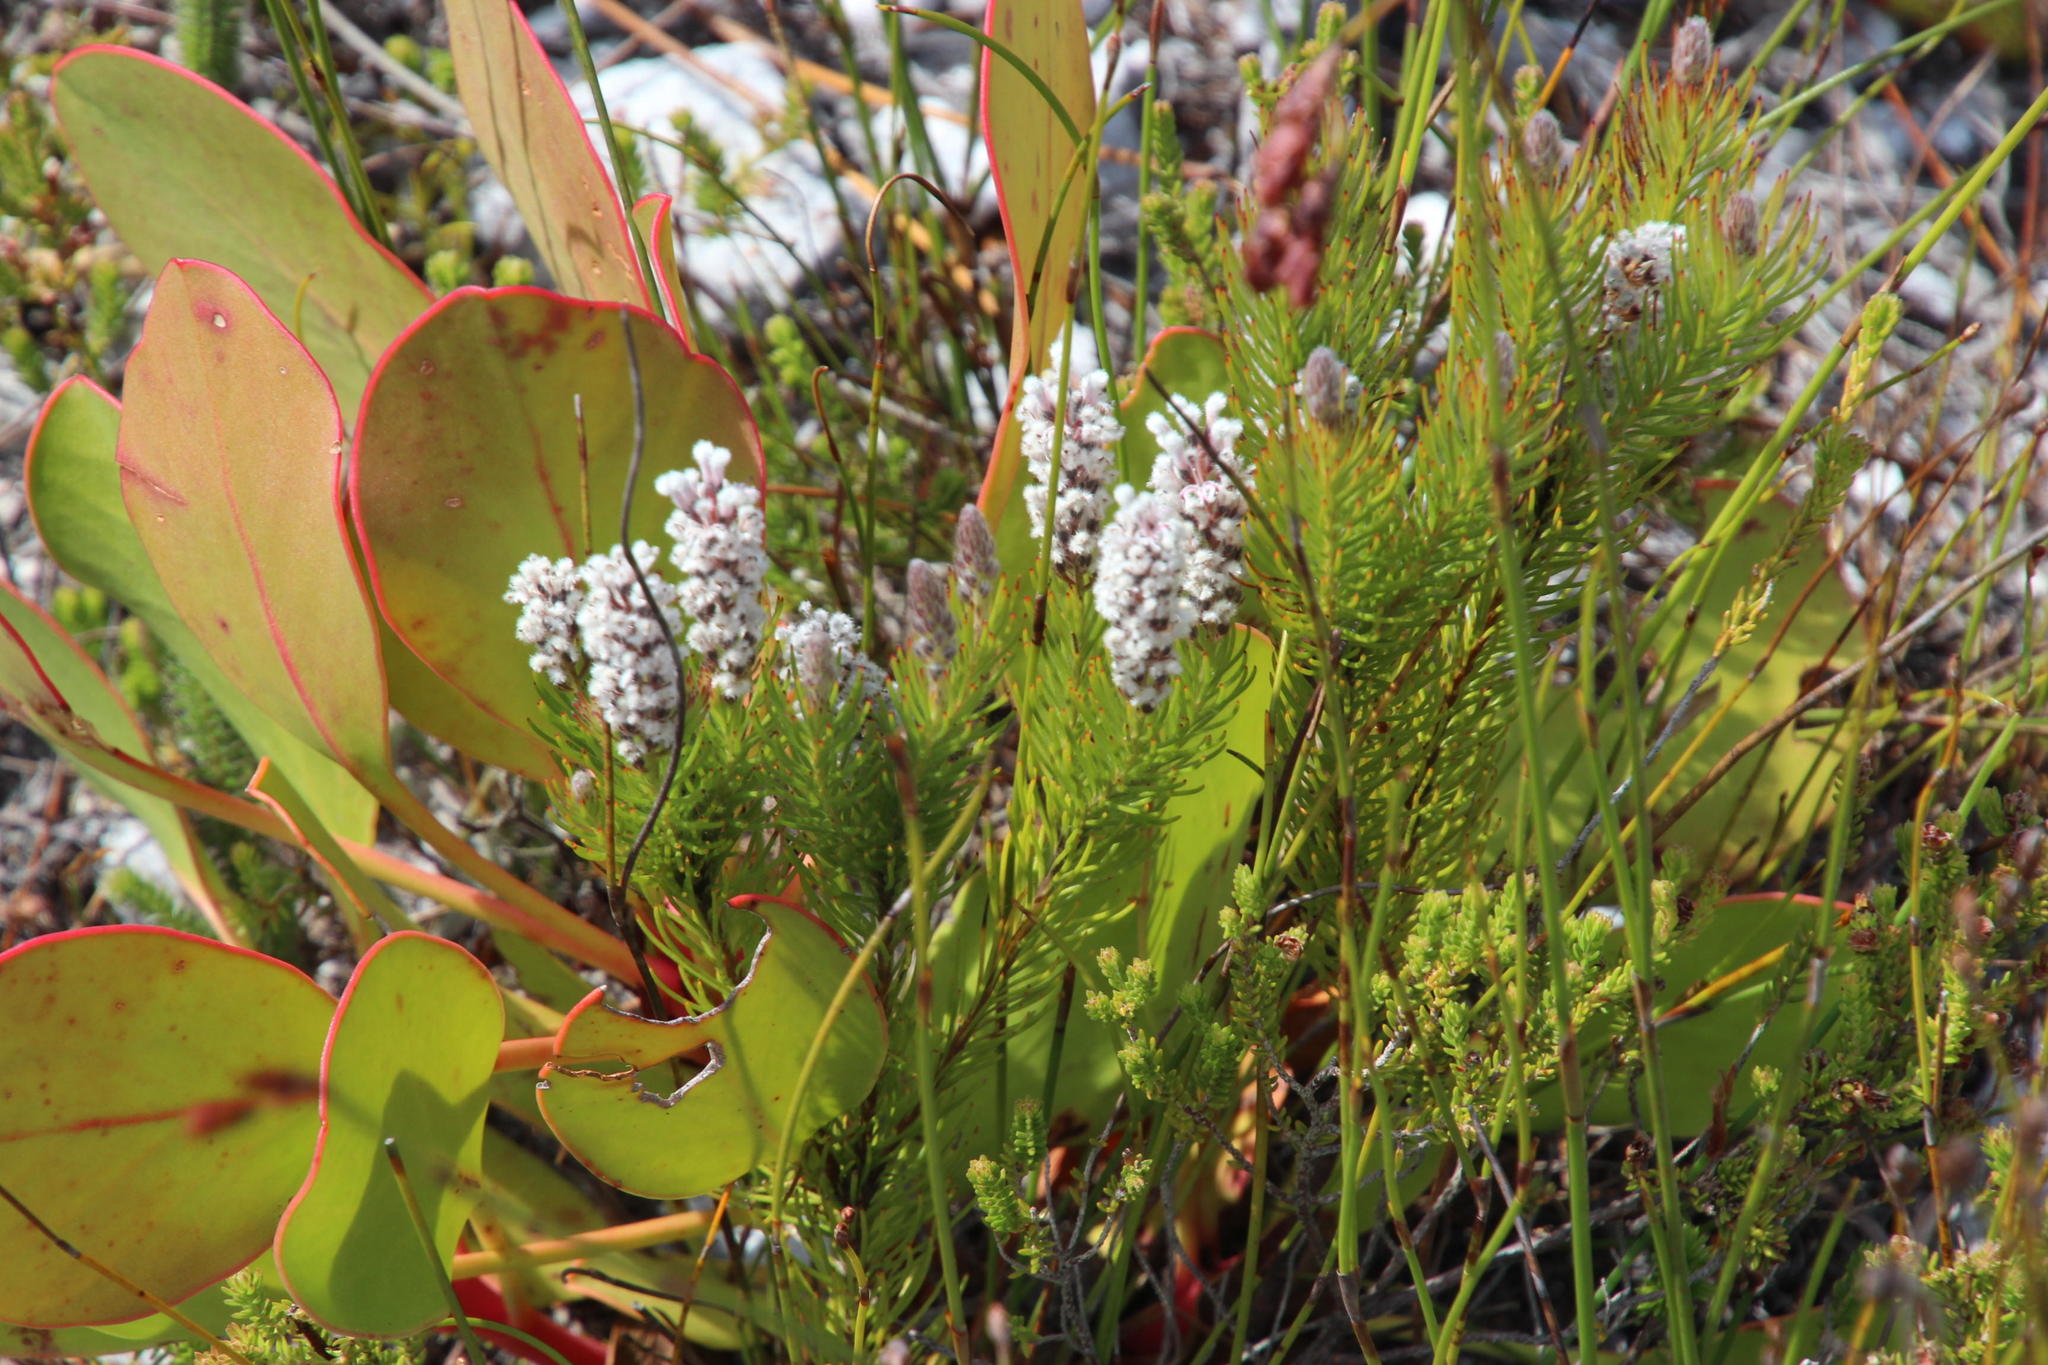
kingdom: Plantae
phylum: Tracheophyta
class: Magnoliopsida
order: Proteales
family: Proteaceae
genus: Spatalla
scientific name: Spatalla mollis
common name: Woolly spoon
